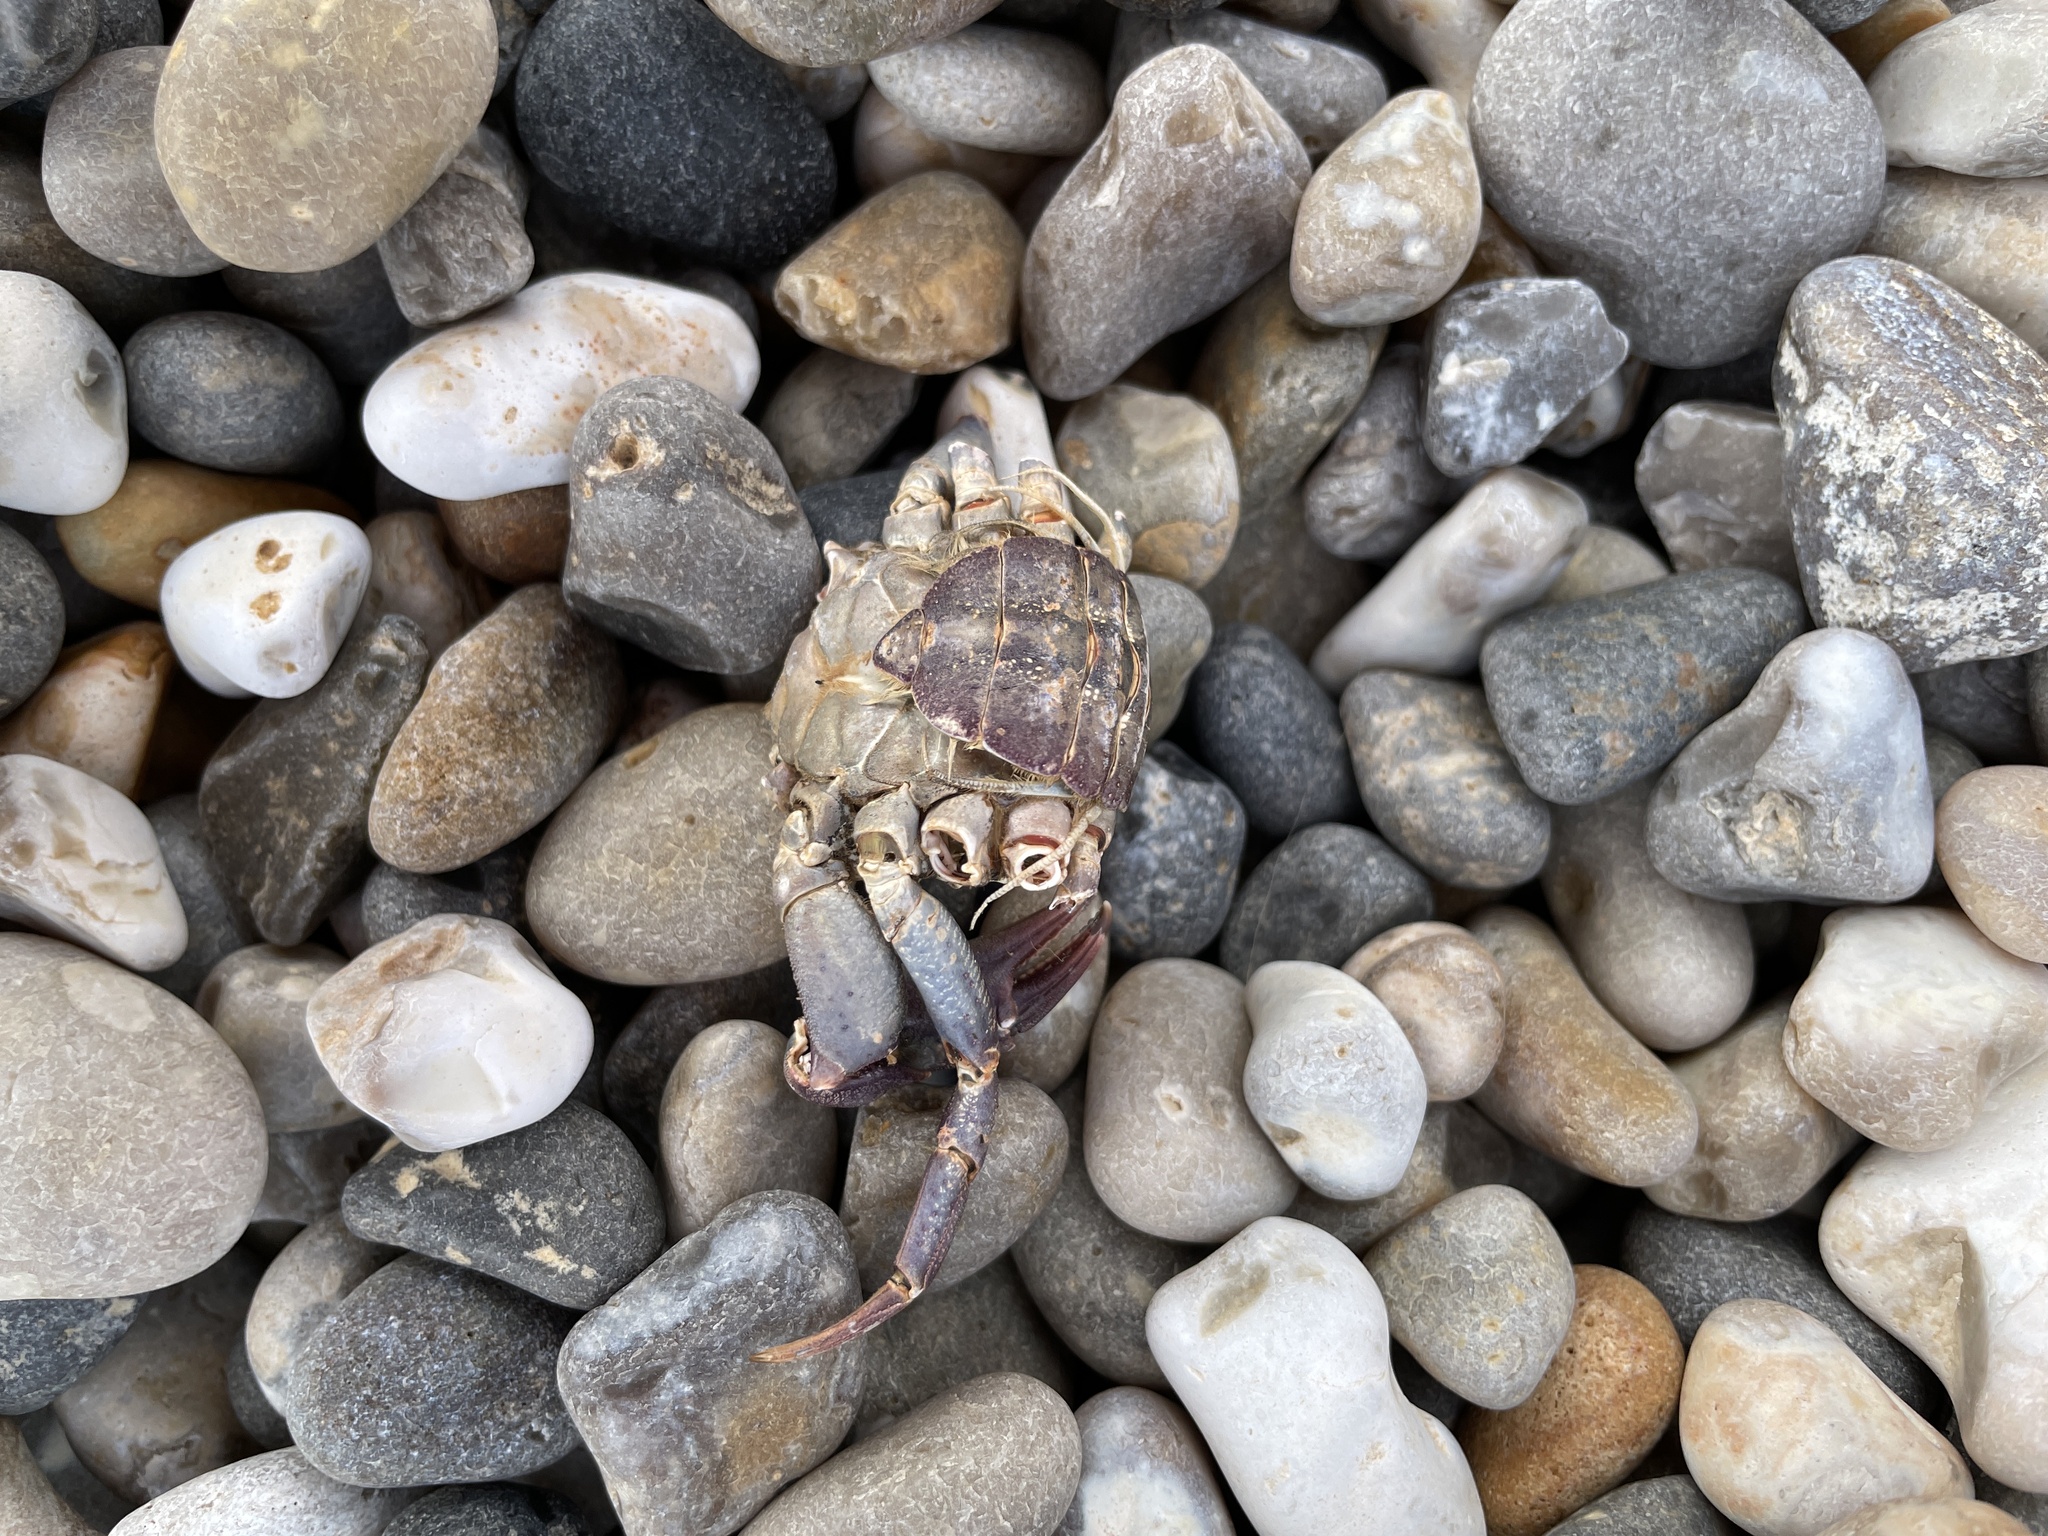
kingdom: Animalia
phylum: Arthropoda
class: Malacostraca
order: Decapoda
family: Carcinidae
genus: Carcinus
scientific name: Carcinus maenas
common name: European green crab
